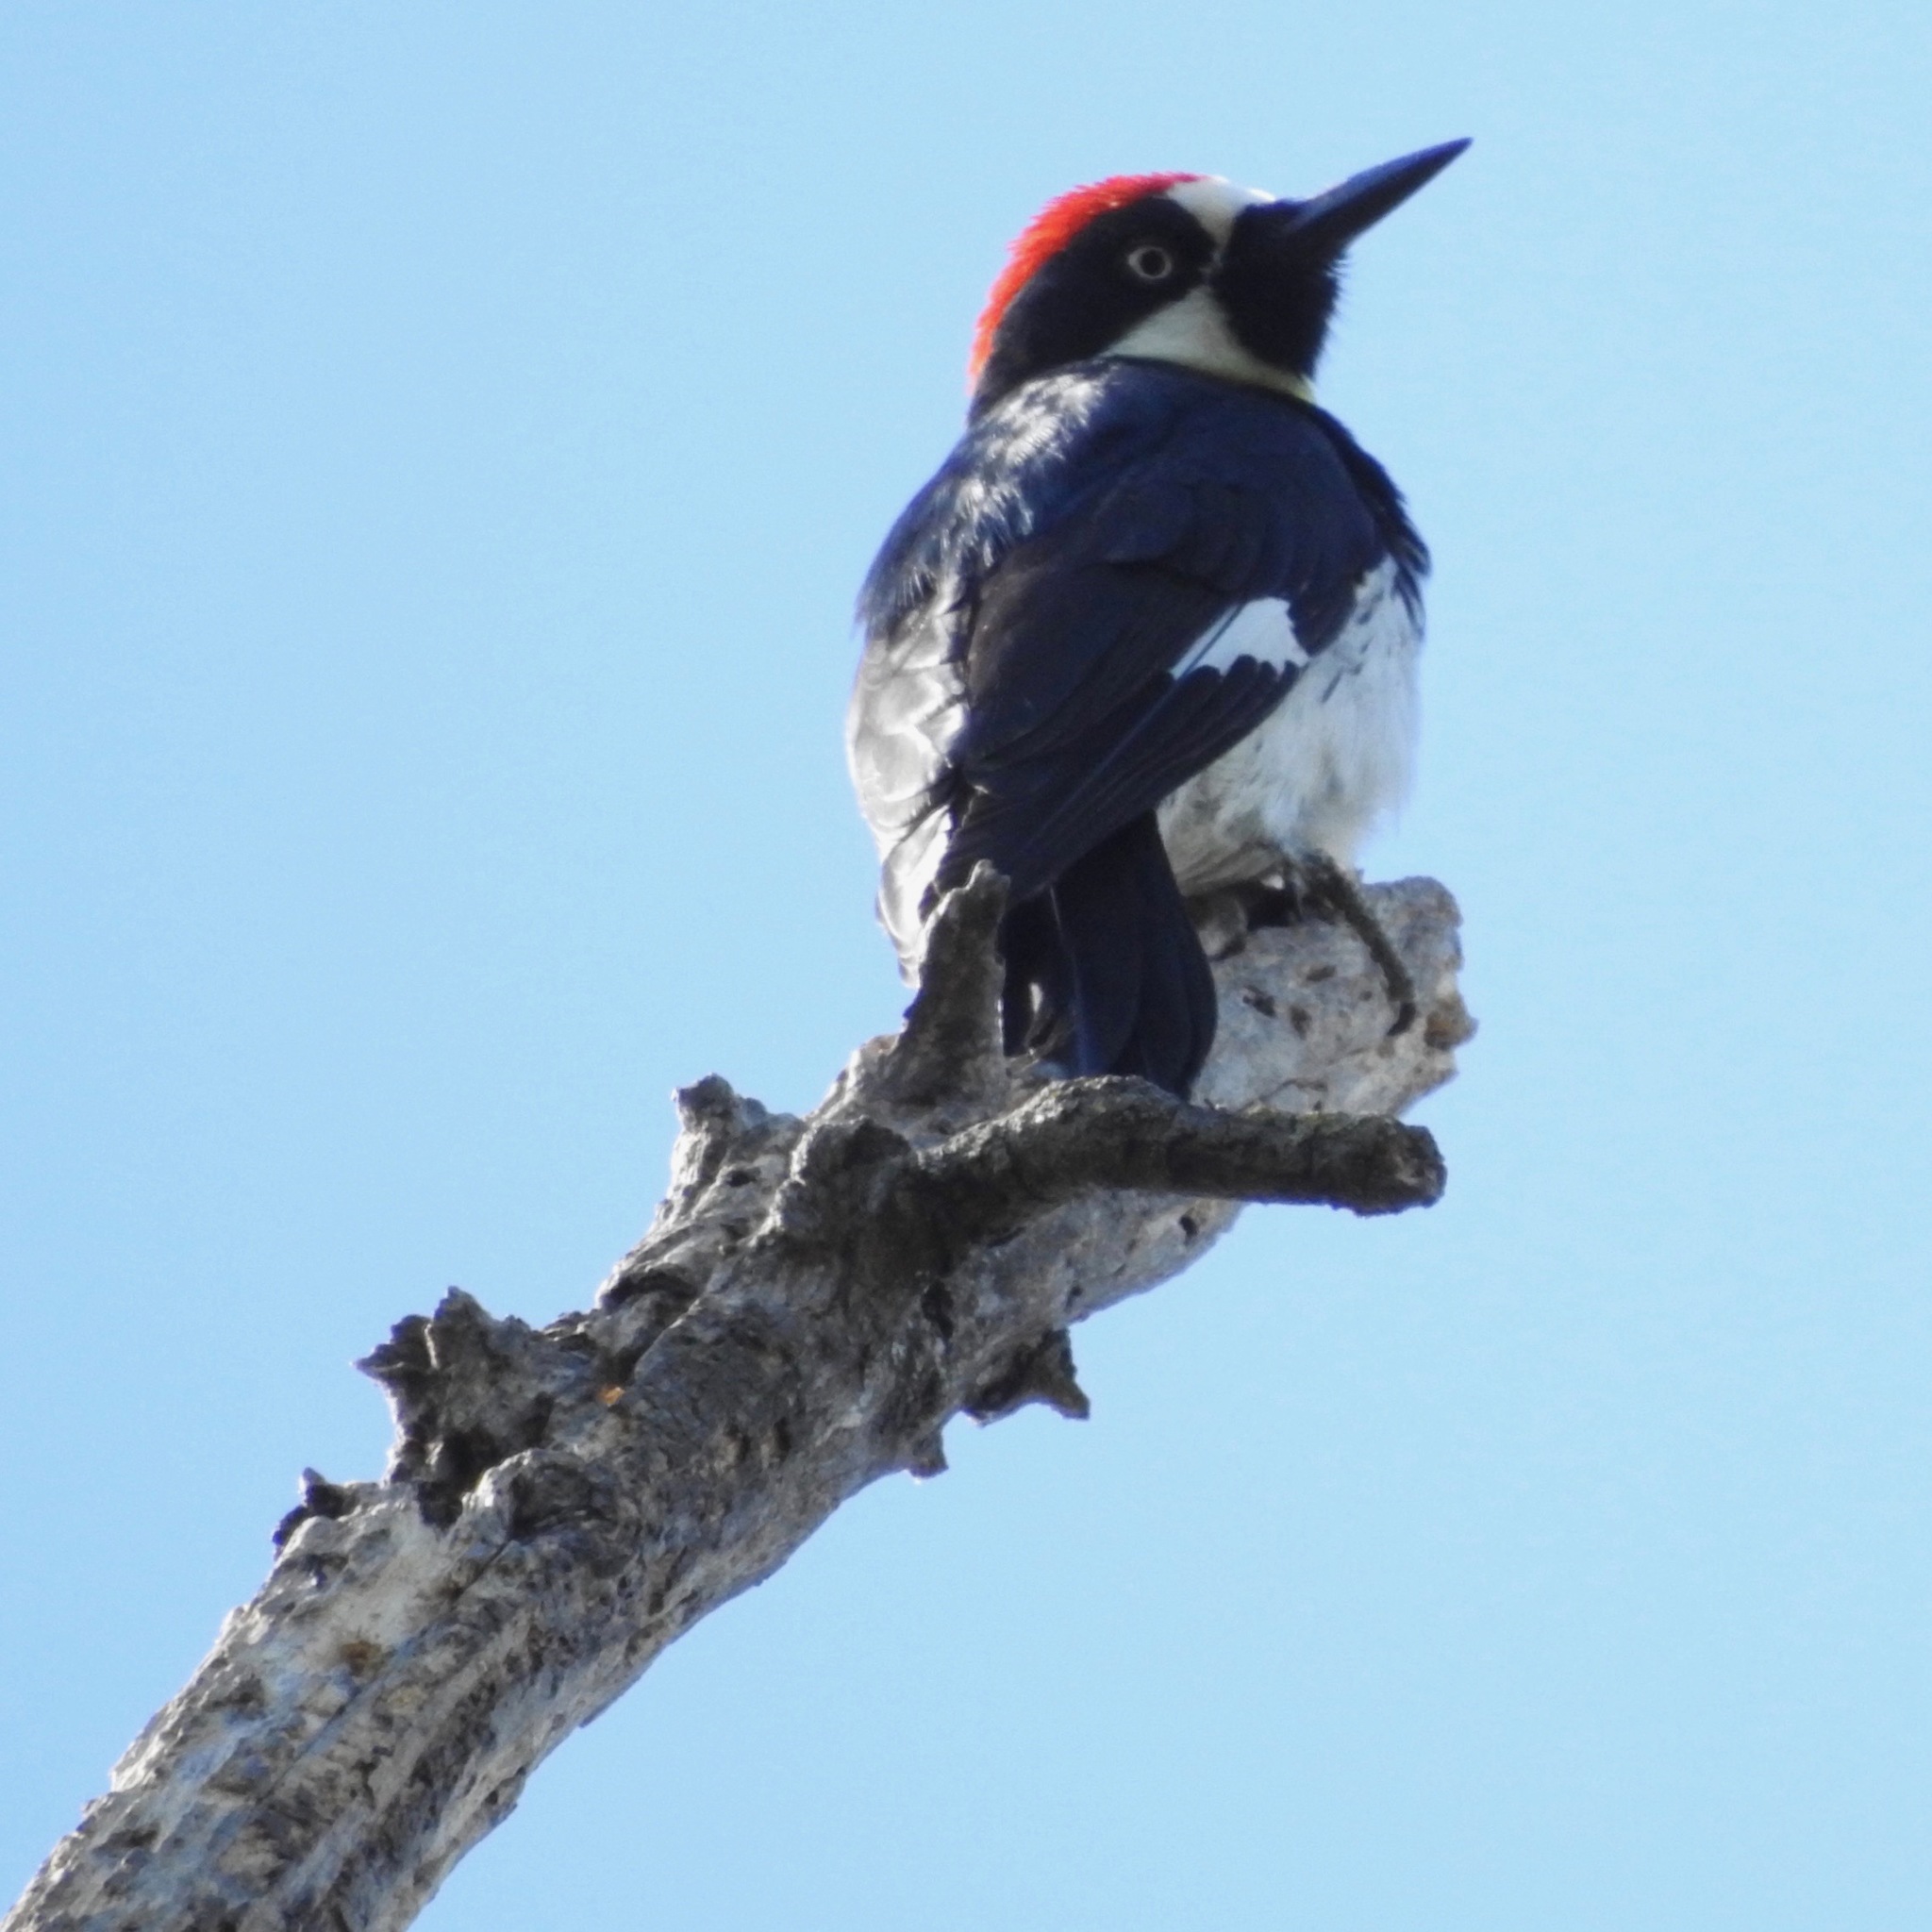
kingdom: Animalia
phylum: Chordata
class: Aves
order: Piciformes
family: Picidae
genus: Melanerpes
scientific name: Melanerpes formicivorus
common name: Acorn woodpecker
